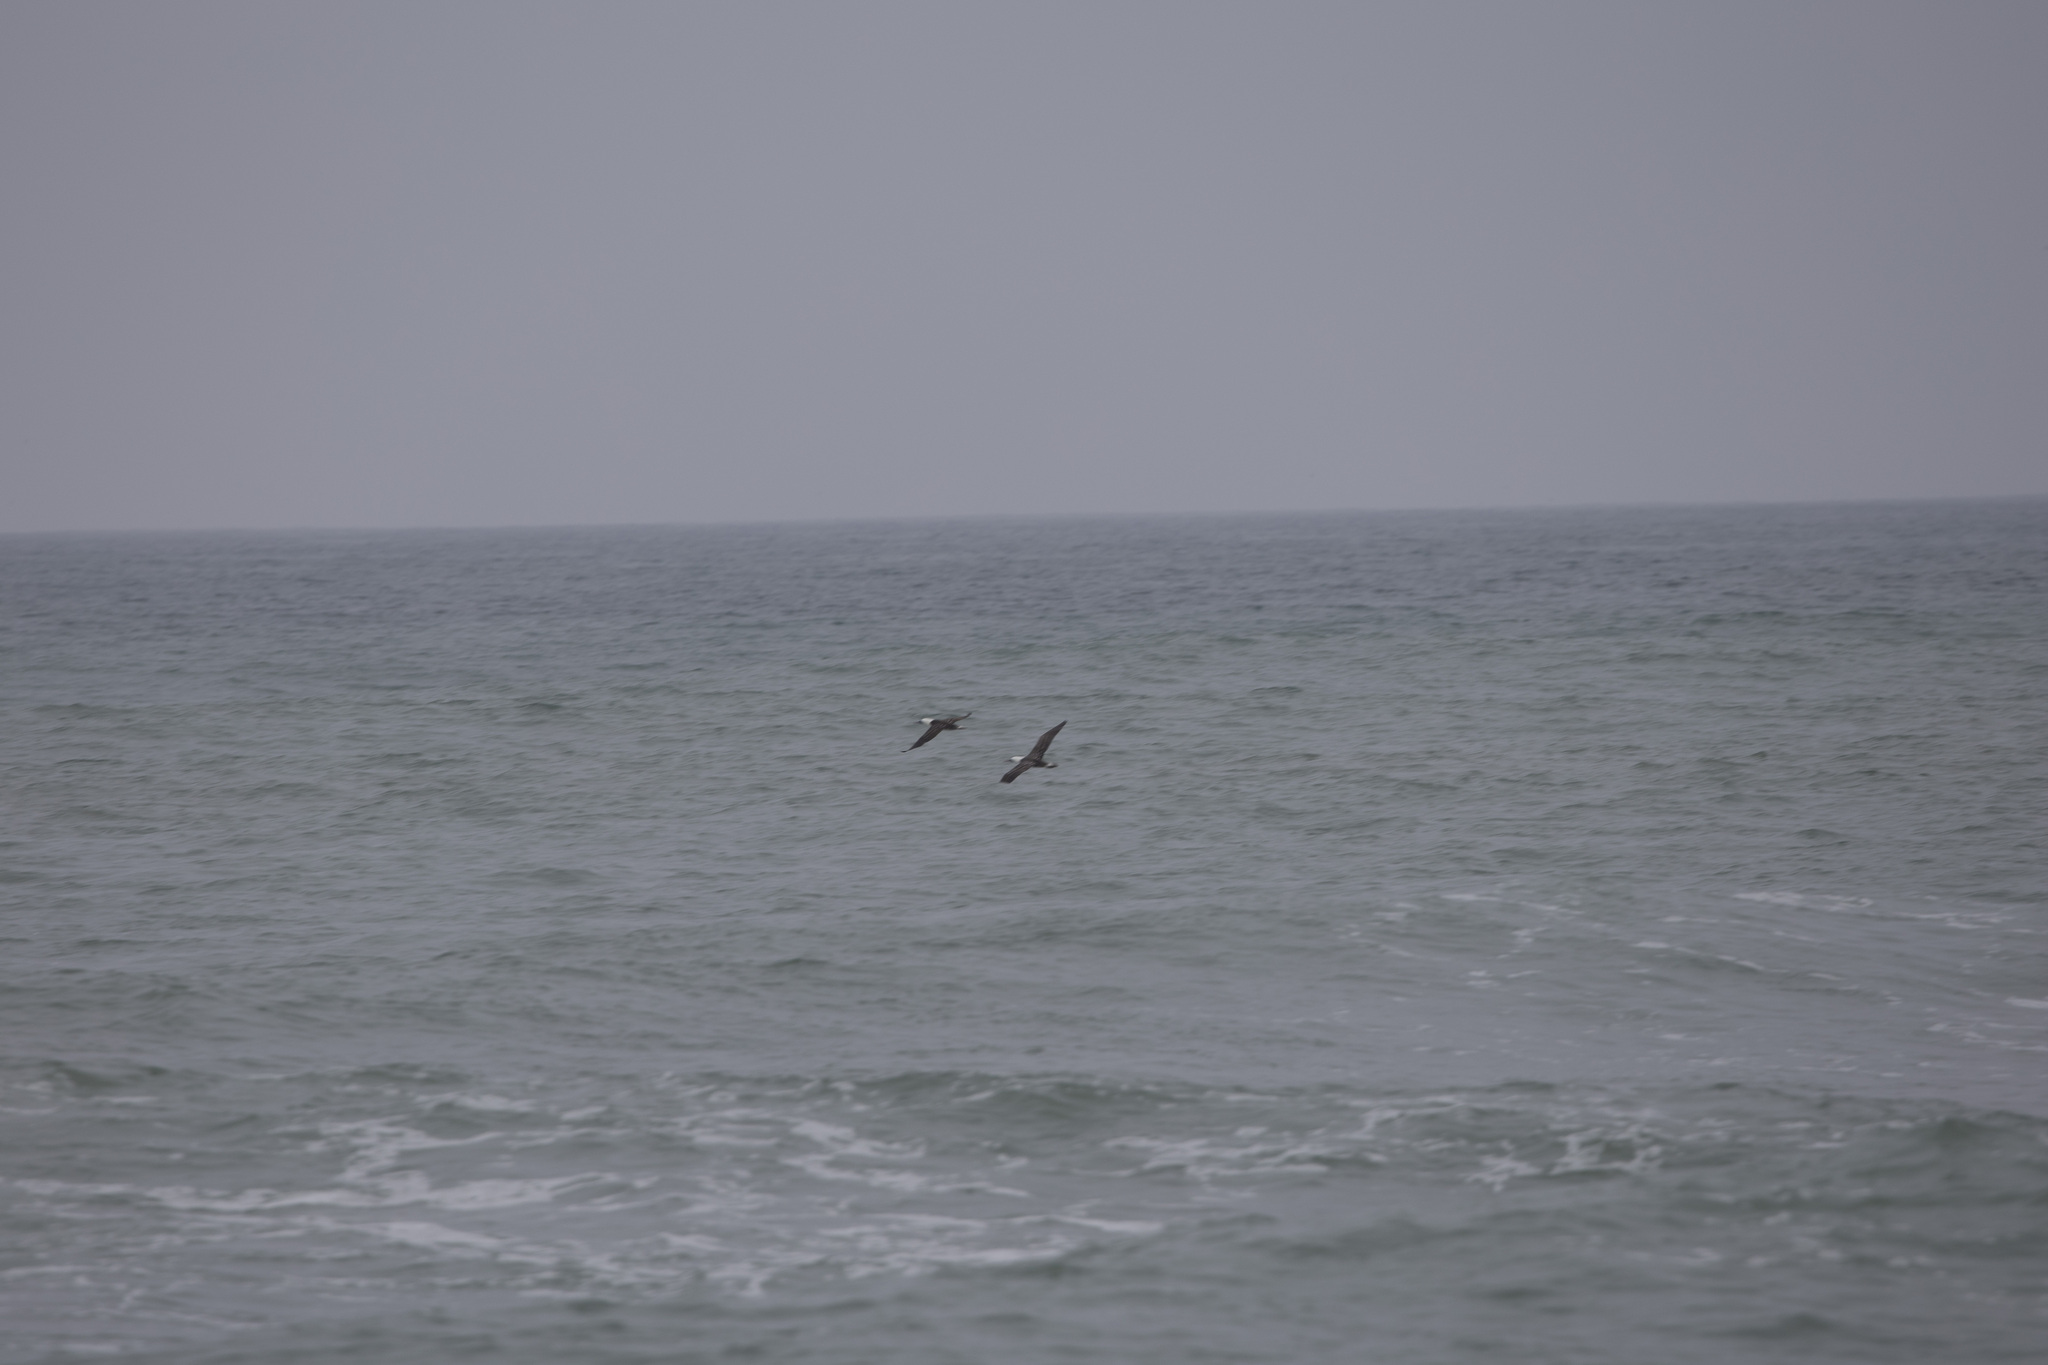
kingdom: Animalia
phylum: Chordata
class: Aves
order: Suliformes
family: Sulidae
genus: Sula
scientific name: Sula variegata
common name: Peruvian booby
